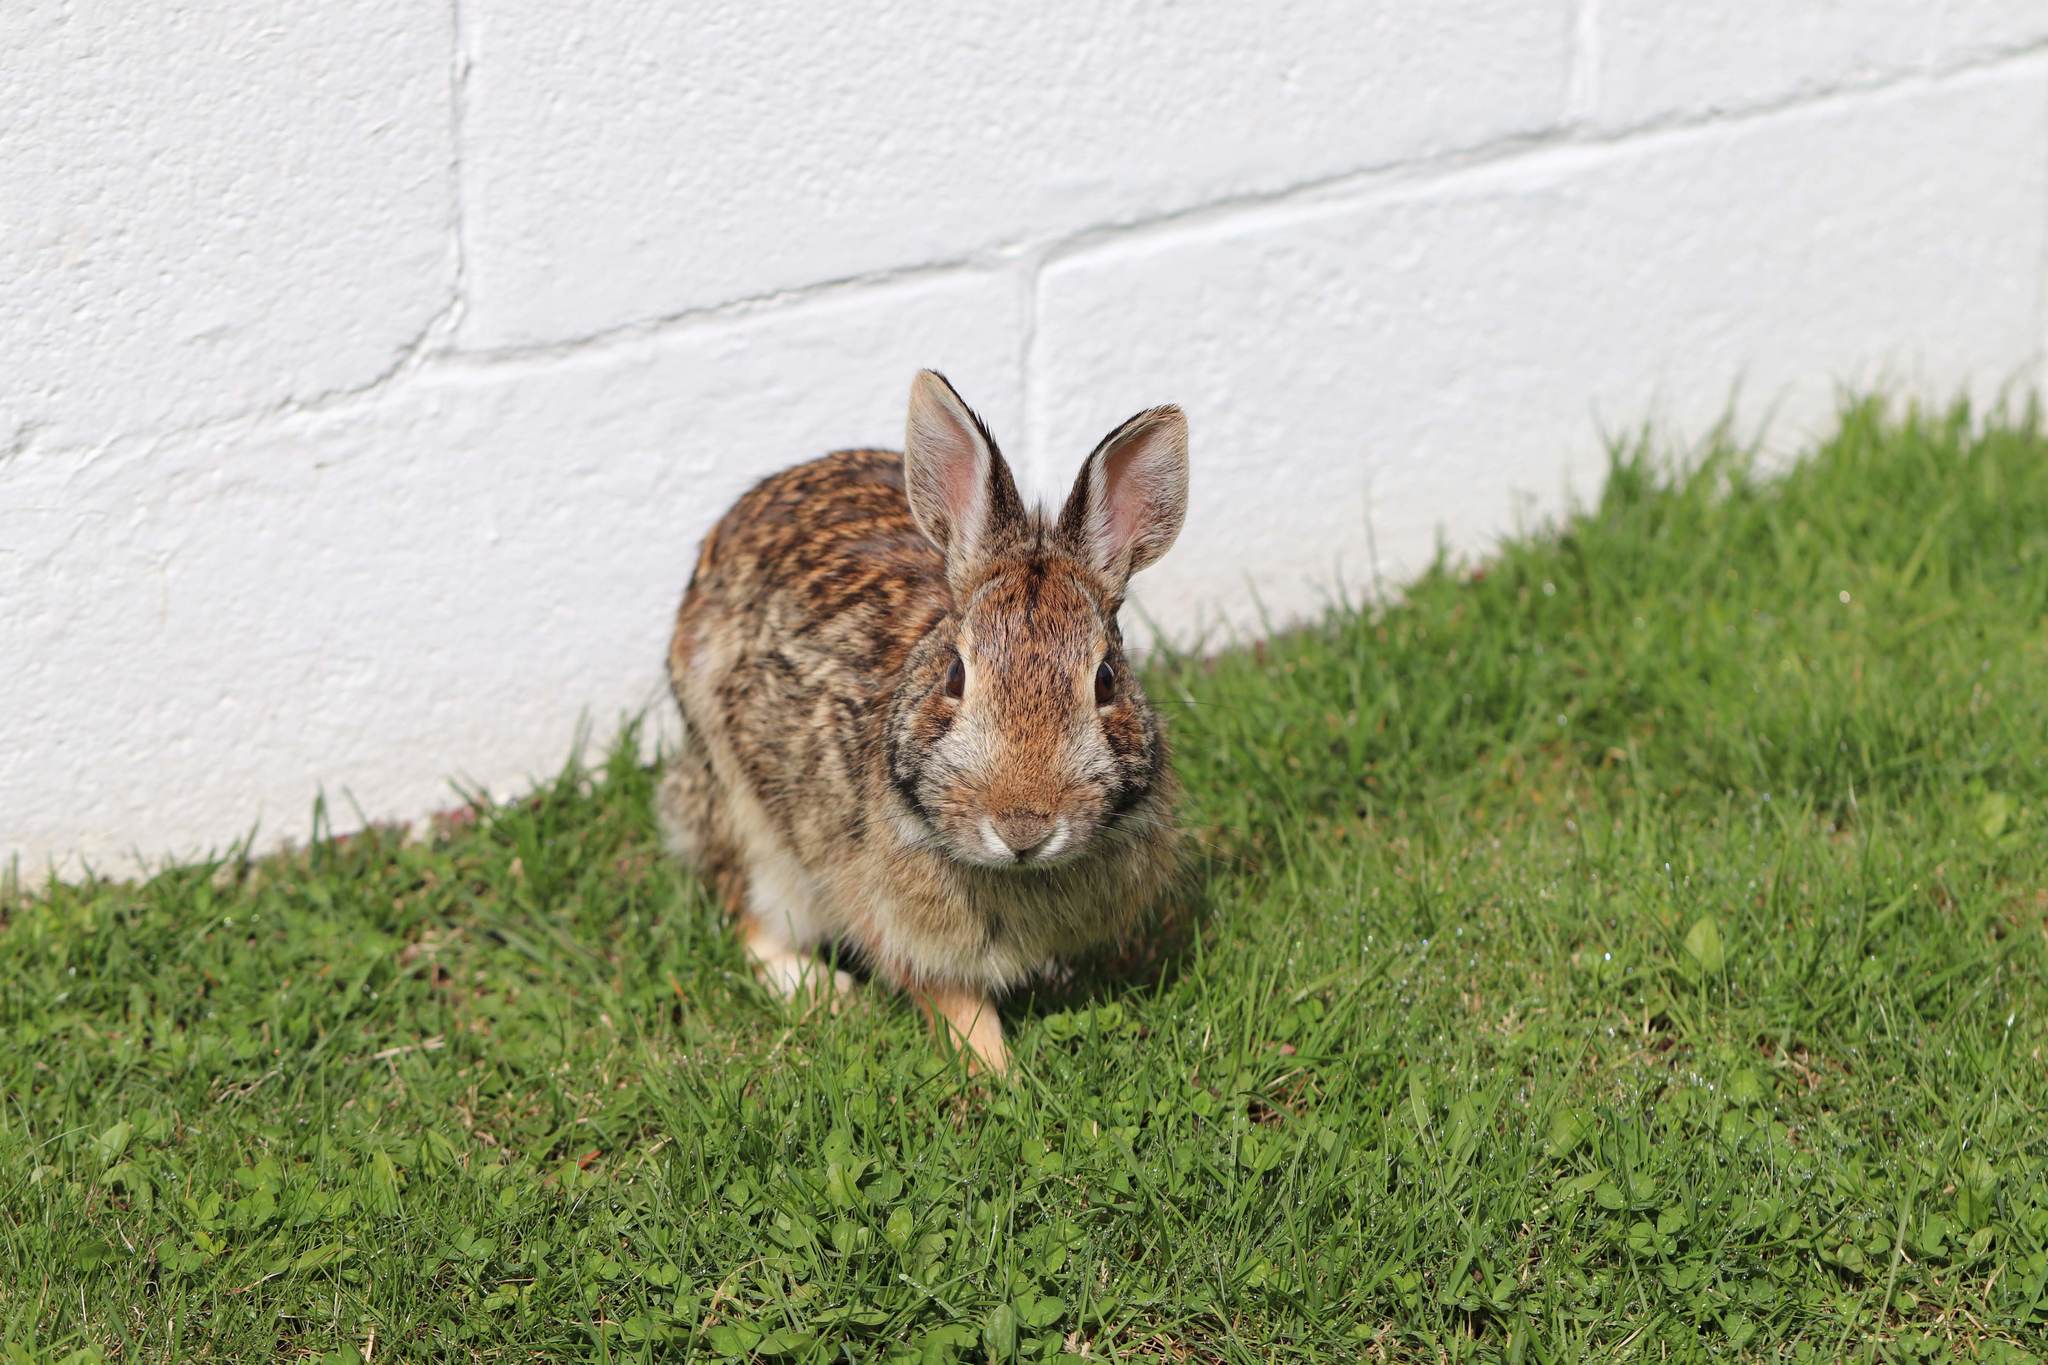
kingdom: Animalia
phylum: Chordata
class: Mammalia
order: Lagomorpha
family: Leporidae
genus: Sylvilagus
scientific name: Sylvilagus floridanus
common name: Eastern cottontail
